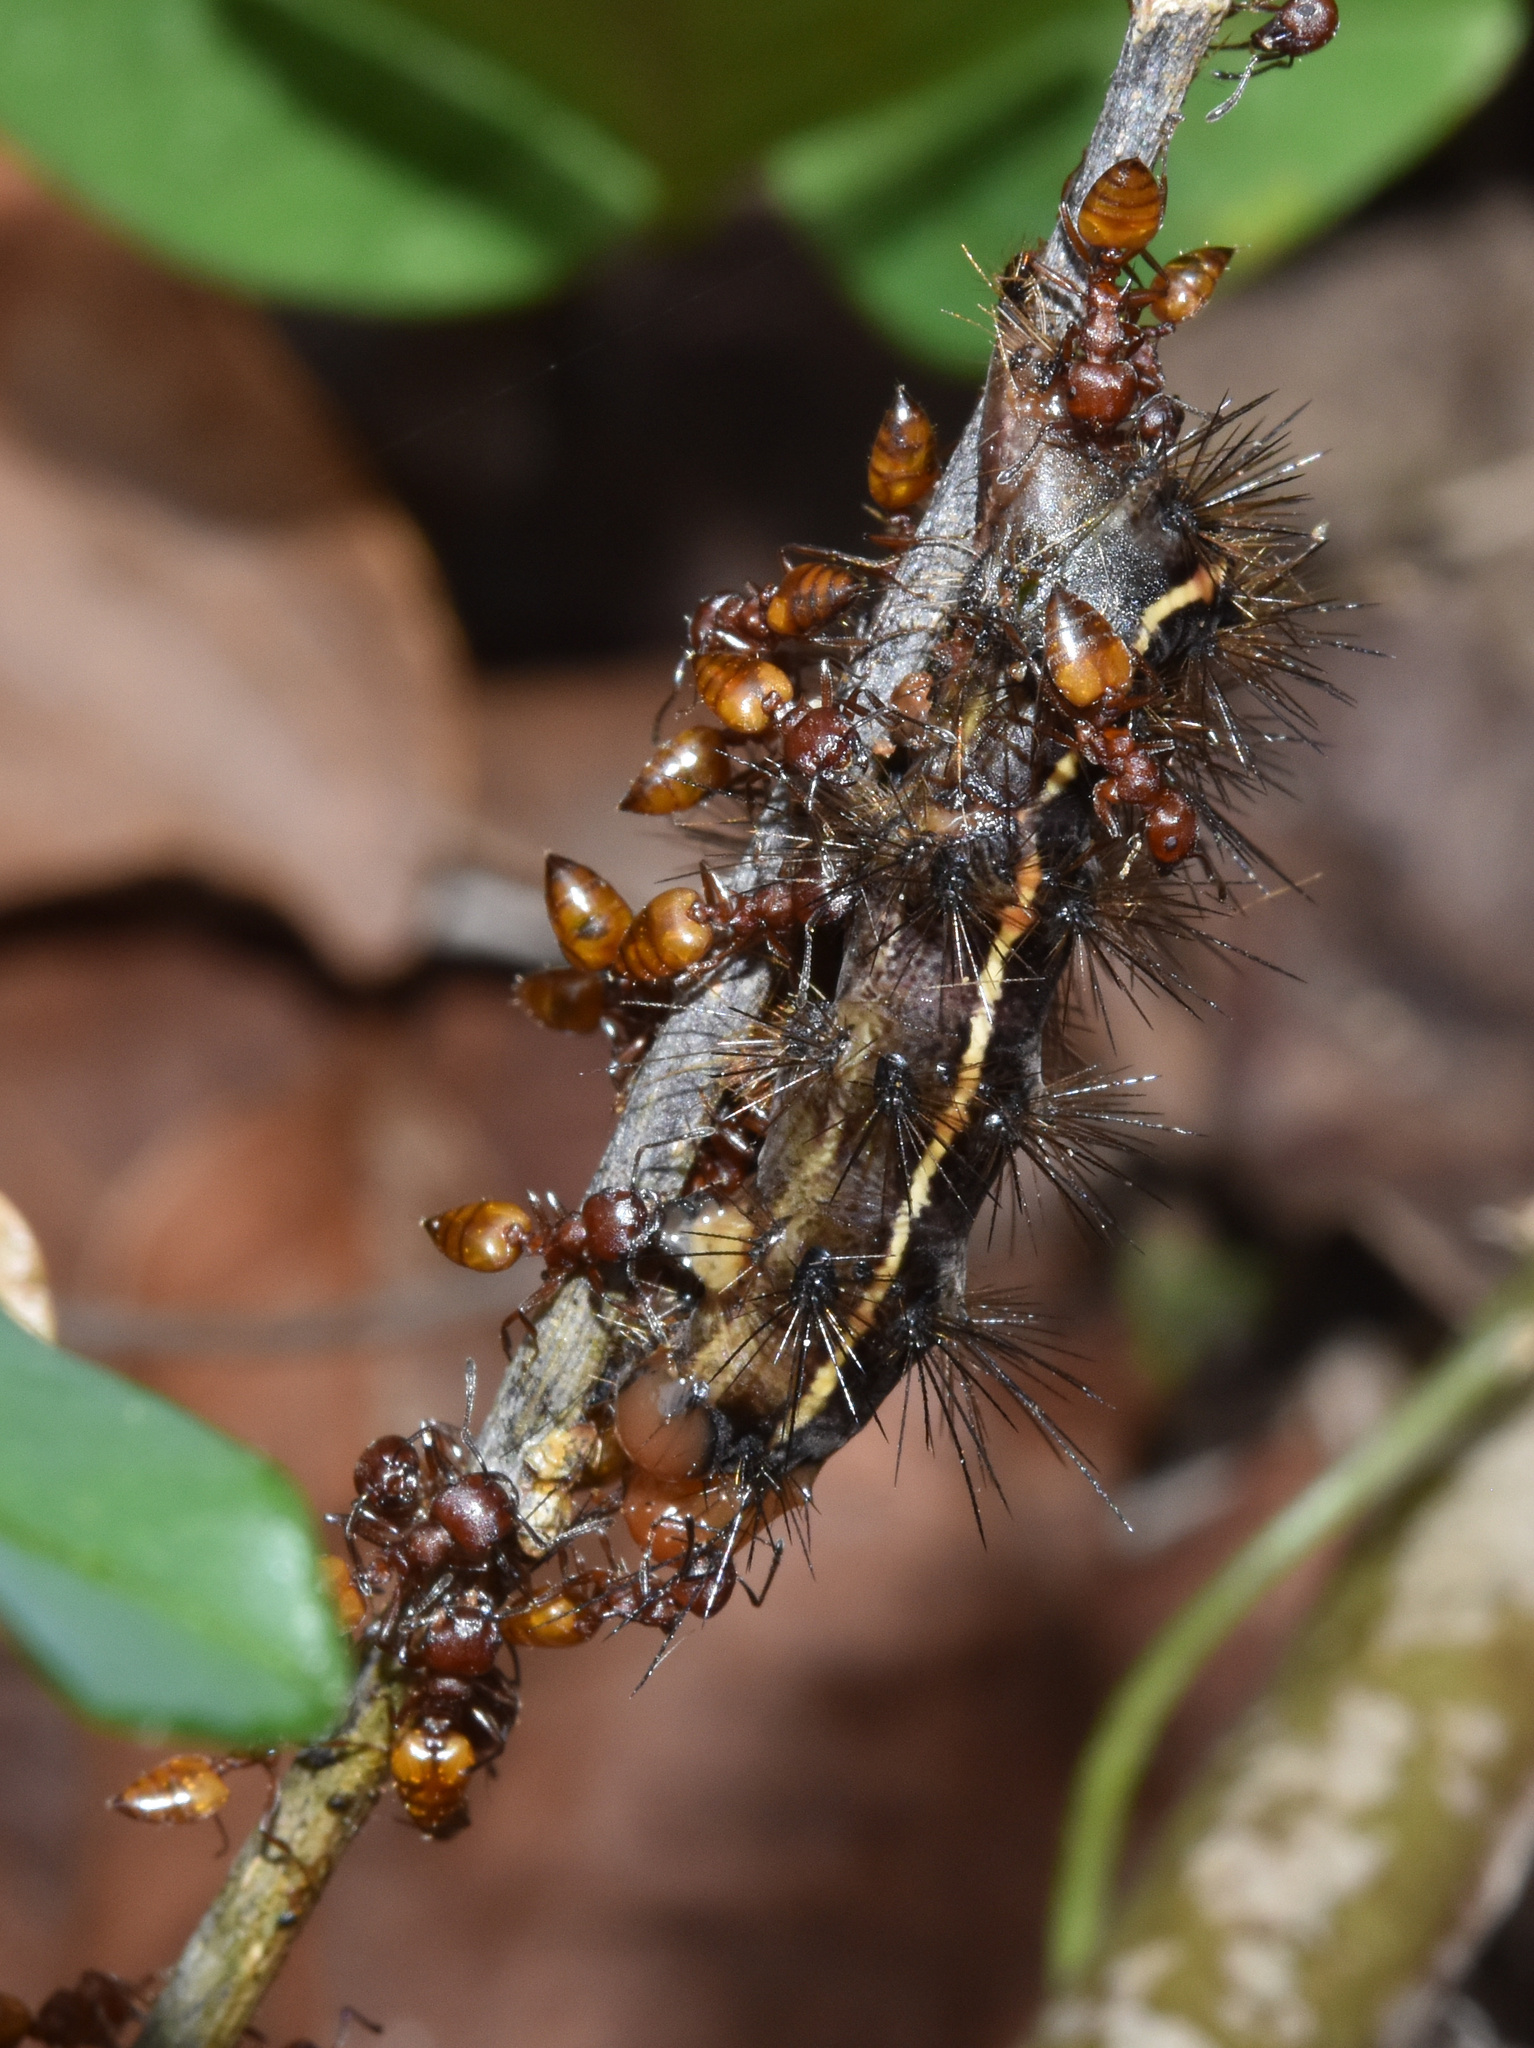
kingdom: Animalia
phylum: Arthropoda
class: Insecta
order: Lepidoptera
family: Erebidae
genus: Ustjuzhania
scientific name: Ustjuzhania lineata
